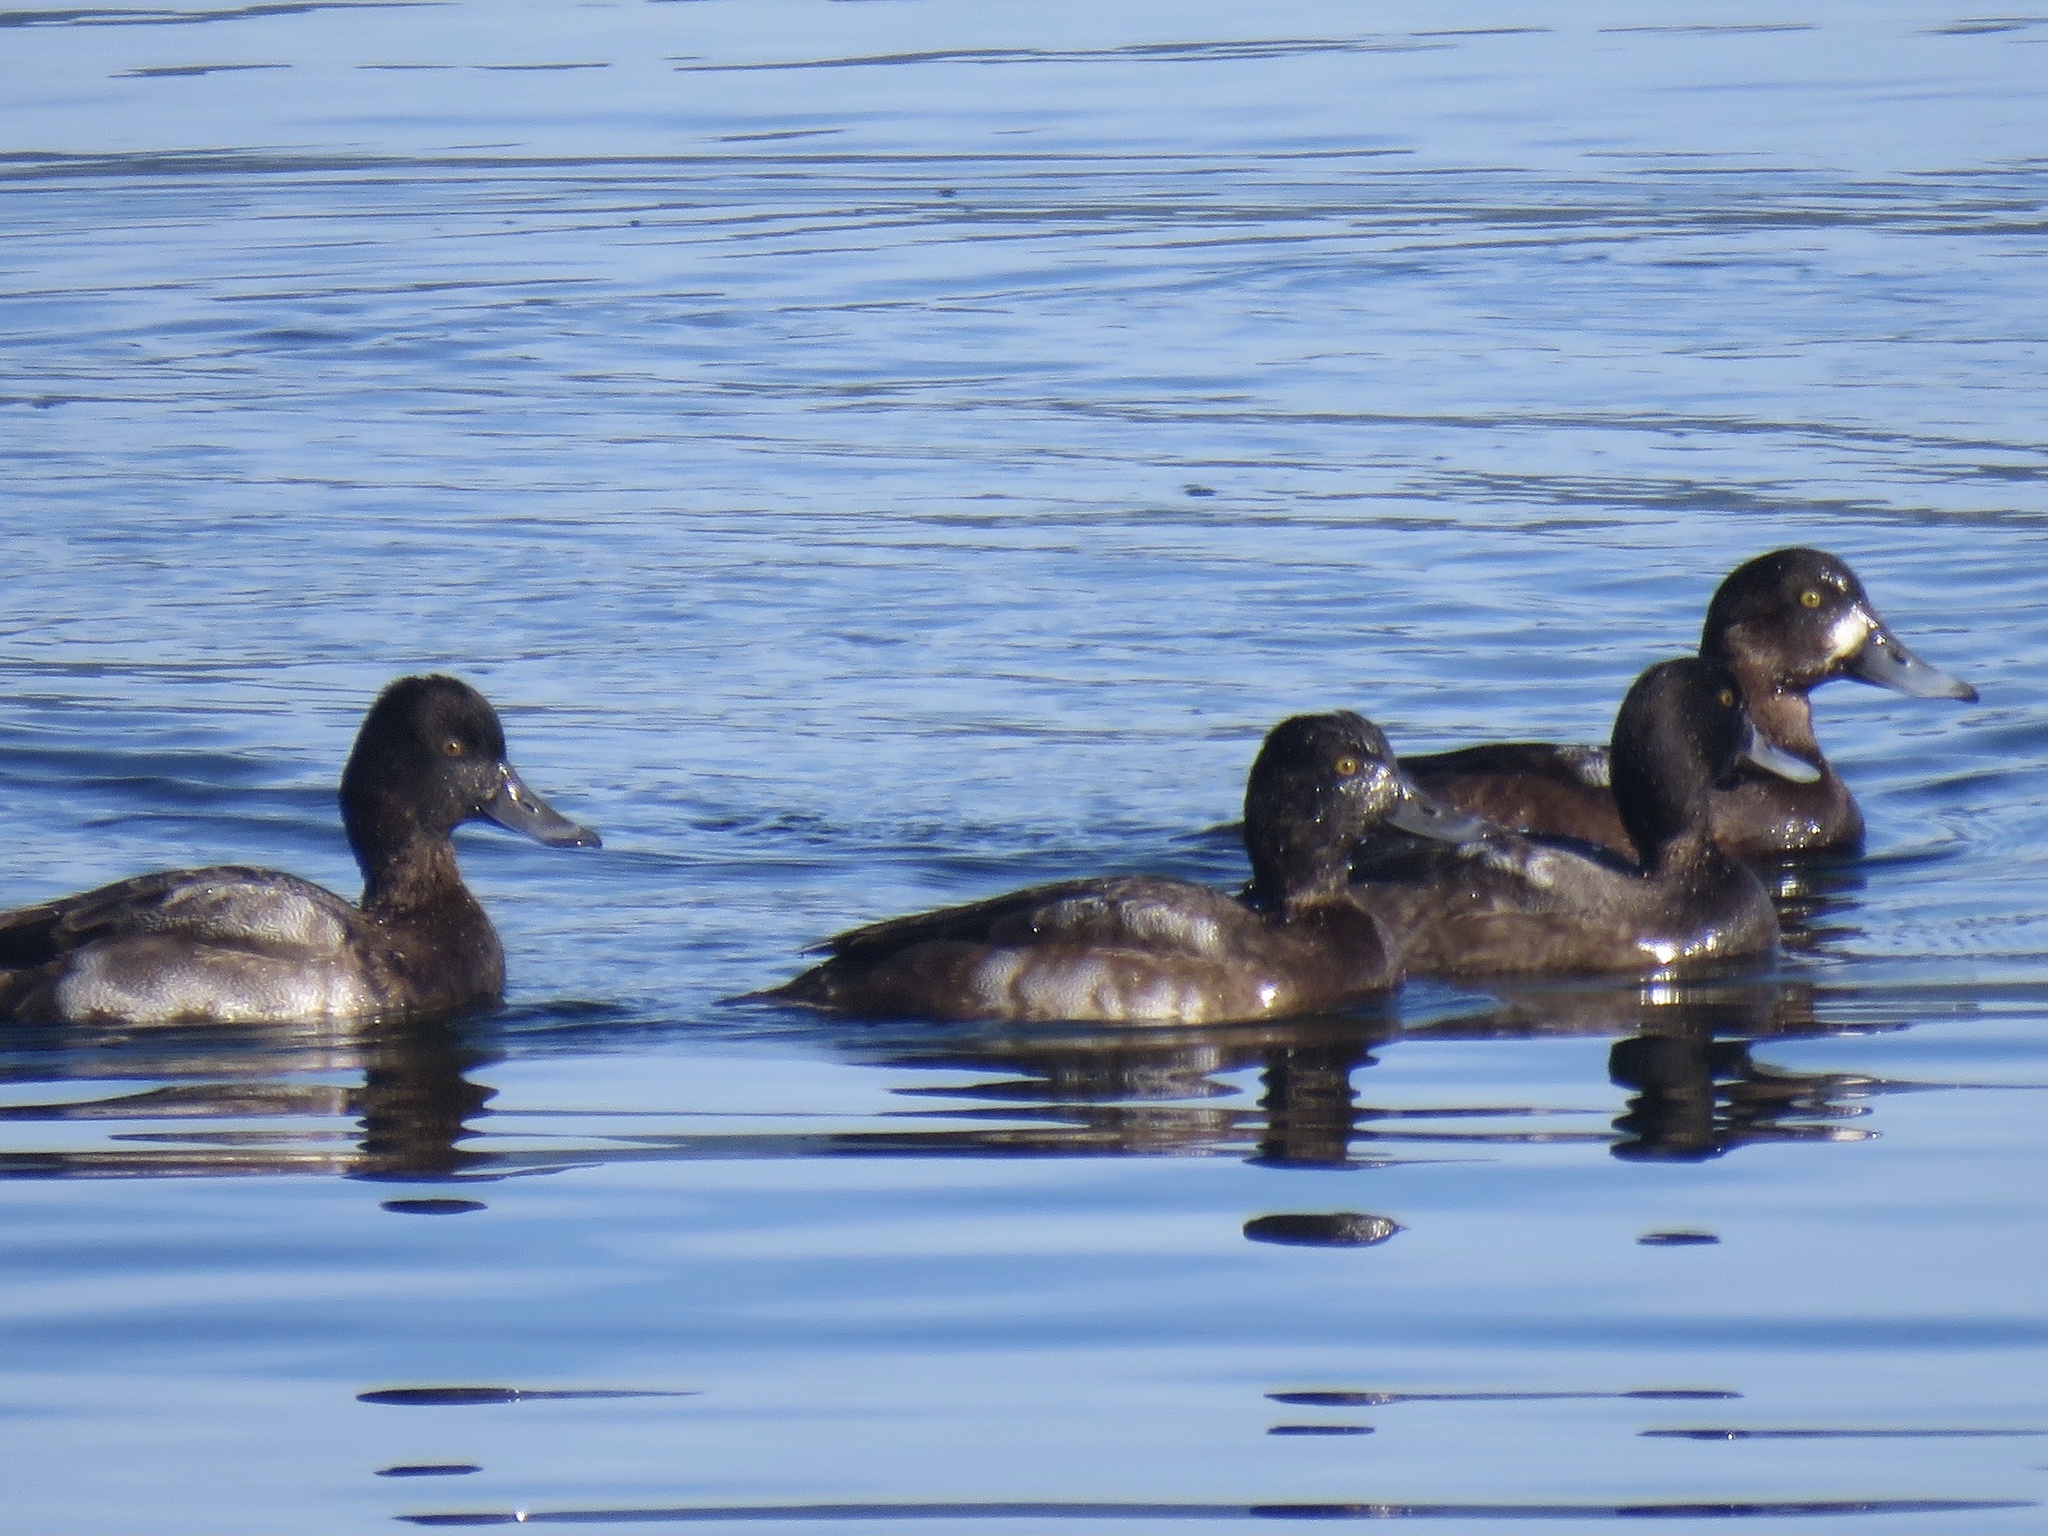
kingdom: Animalia
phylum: Chordata
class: Aves
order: Anseriformes
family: Anatidae
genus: Aythya
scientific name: Aythya affinis
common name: Lesser scaup
